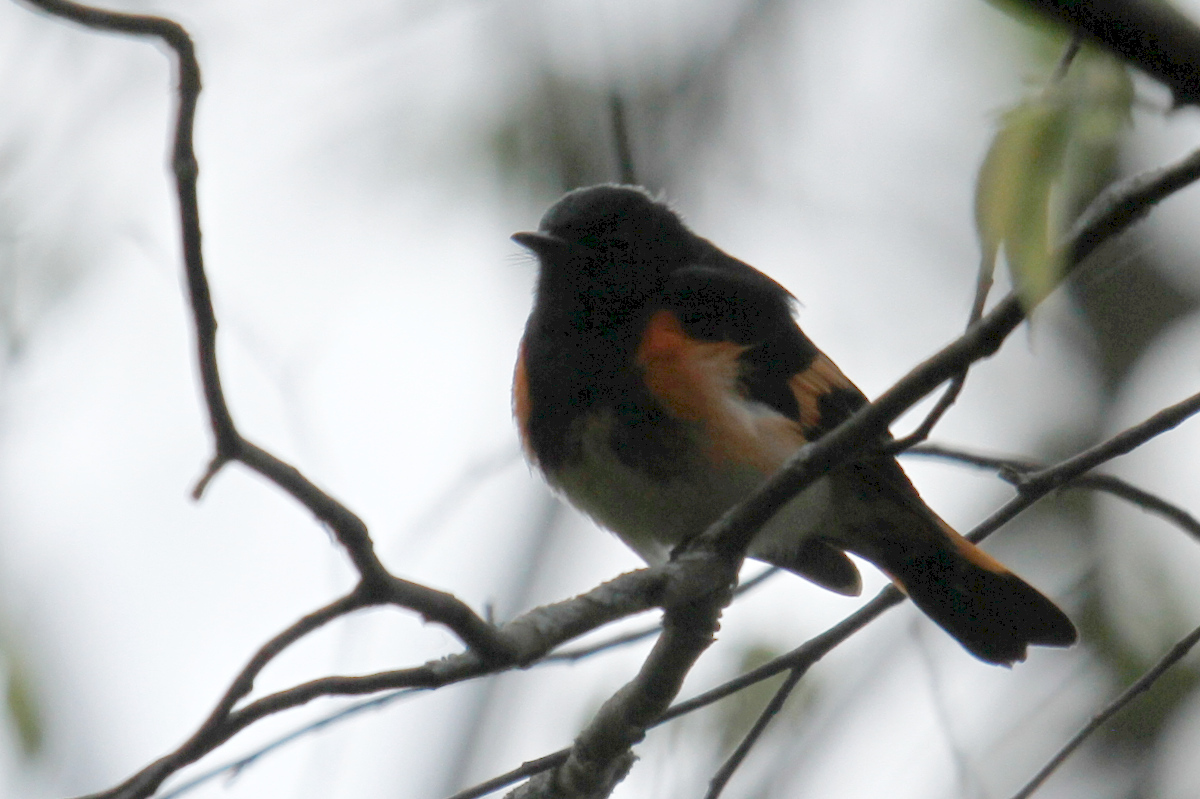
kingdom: Animalia
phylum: Chordata
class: Aves
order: Passeriformes
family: Parulidae
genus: Setophaga
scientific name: Setophaga ruticilla
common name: American redstart
